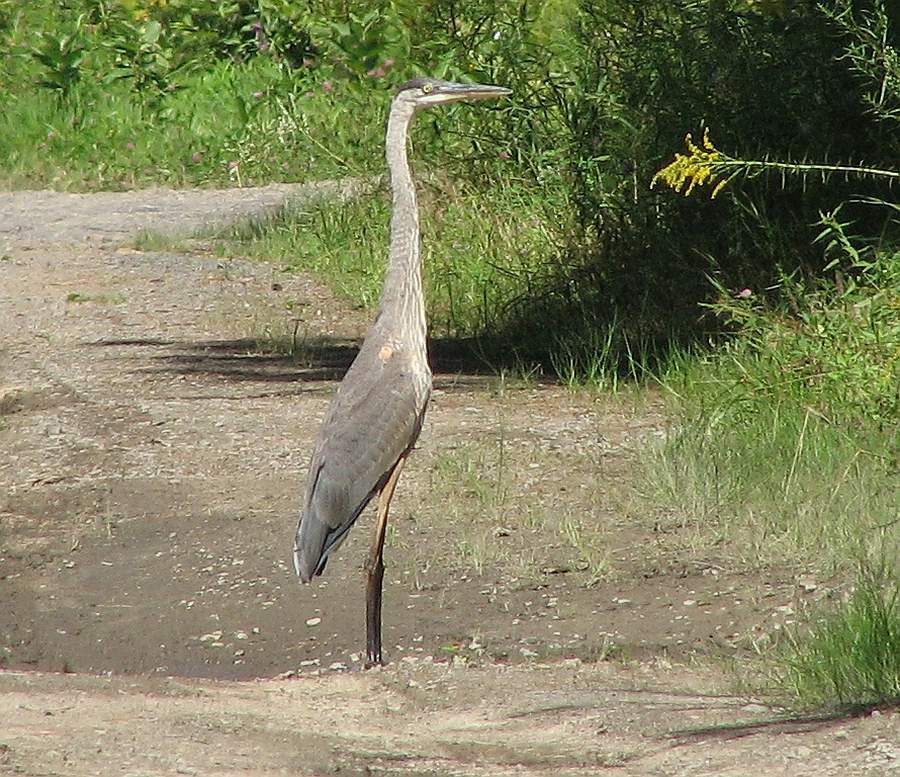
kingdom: Animalia
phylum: Chordata
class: Aves
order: Pelecaniformes
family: Ardeidae
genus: Ardea
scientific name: Ardea herodias
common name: Great blue heron
